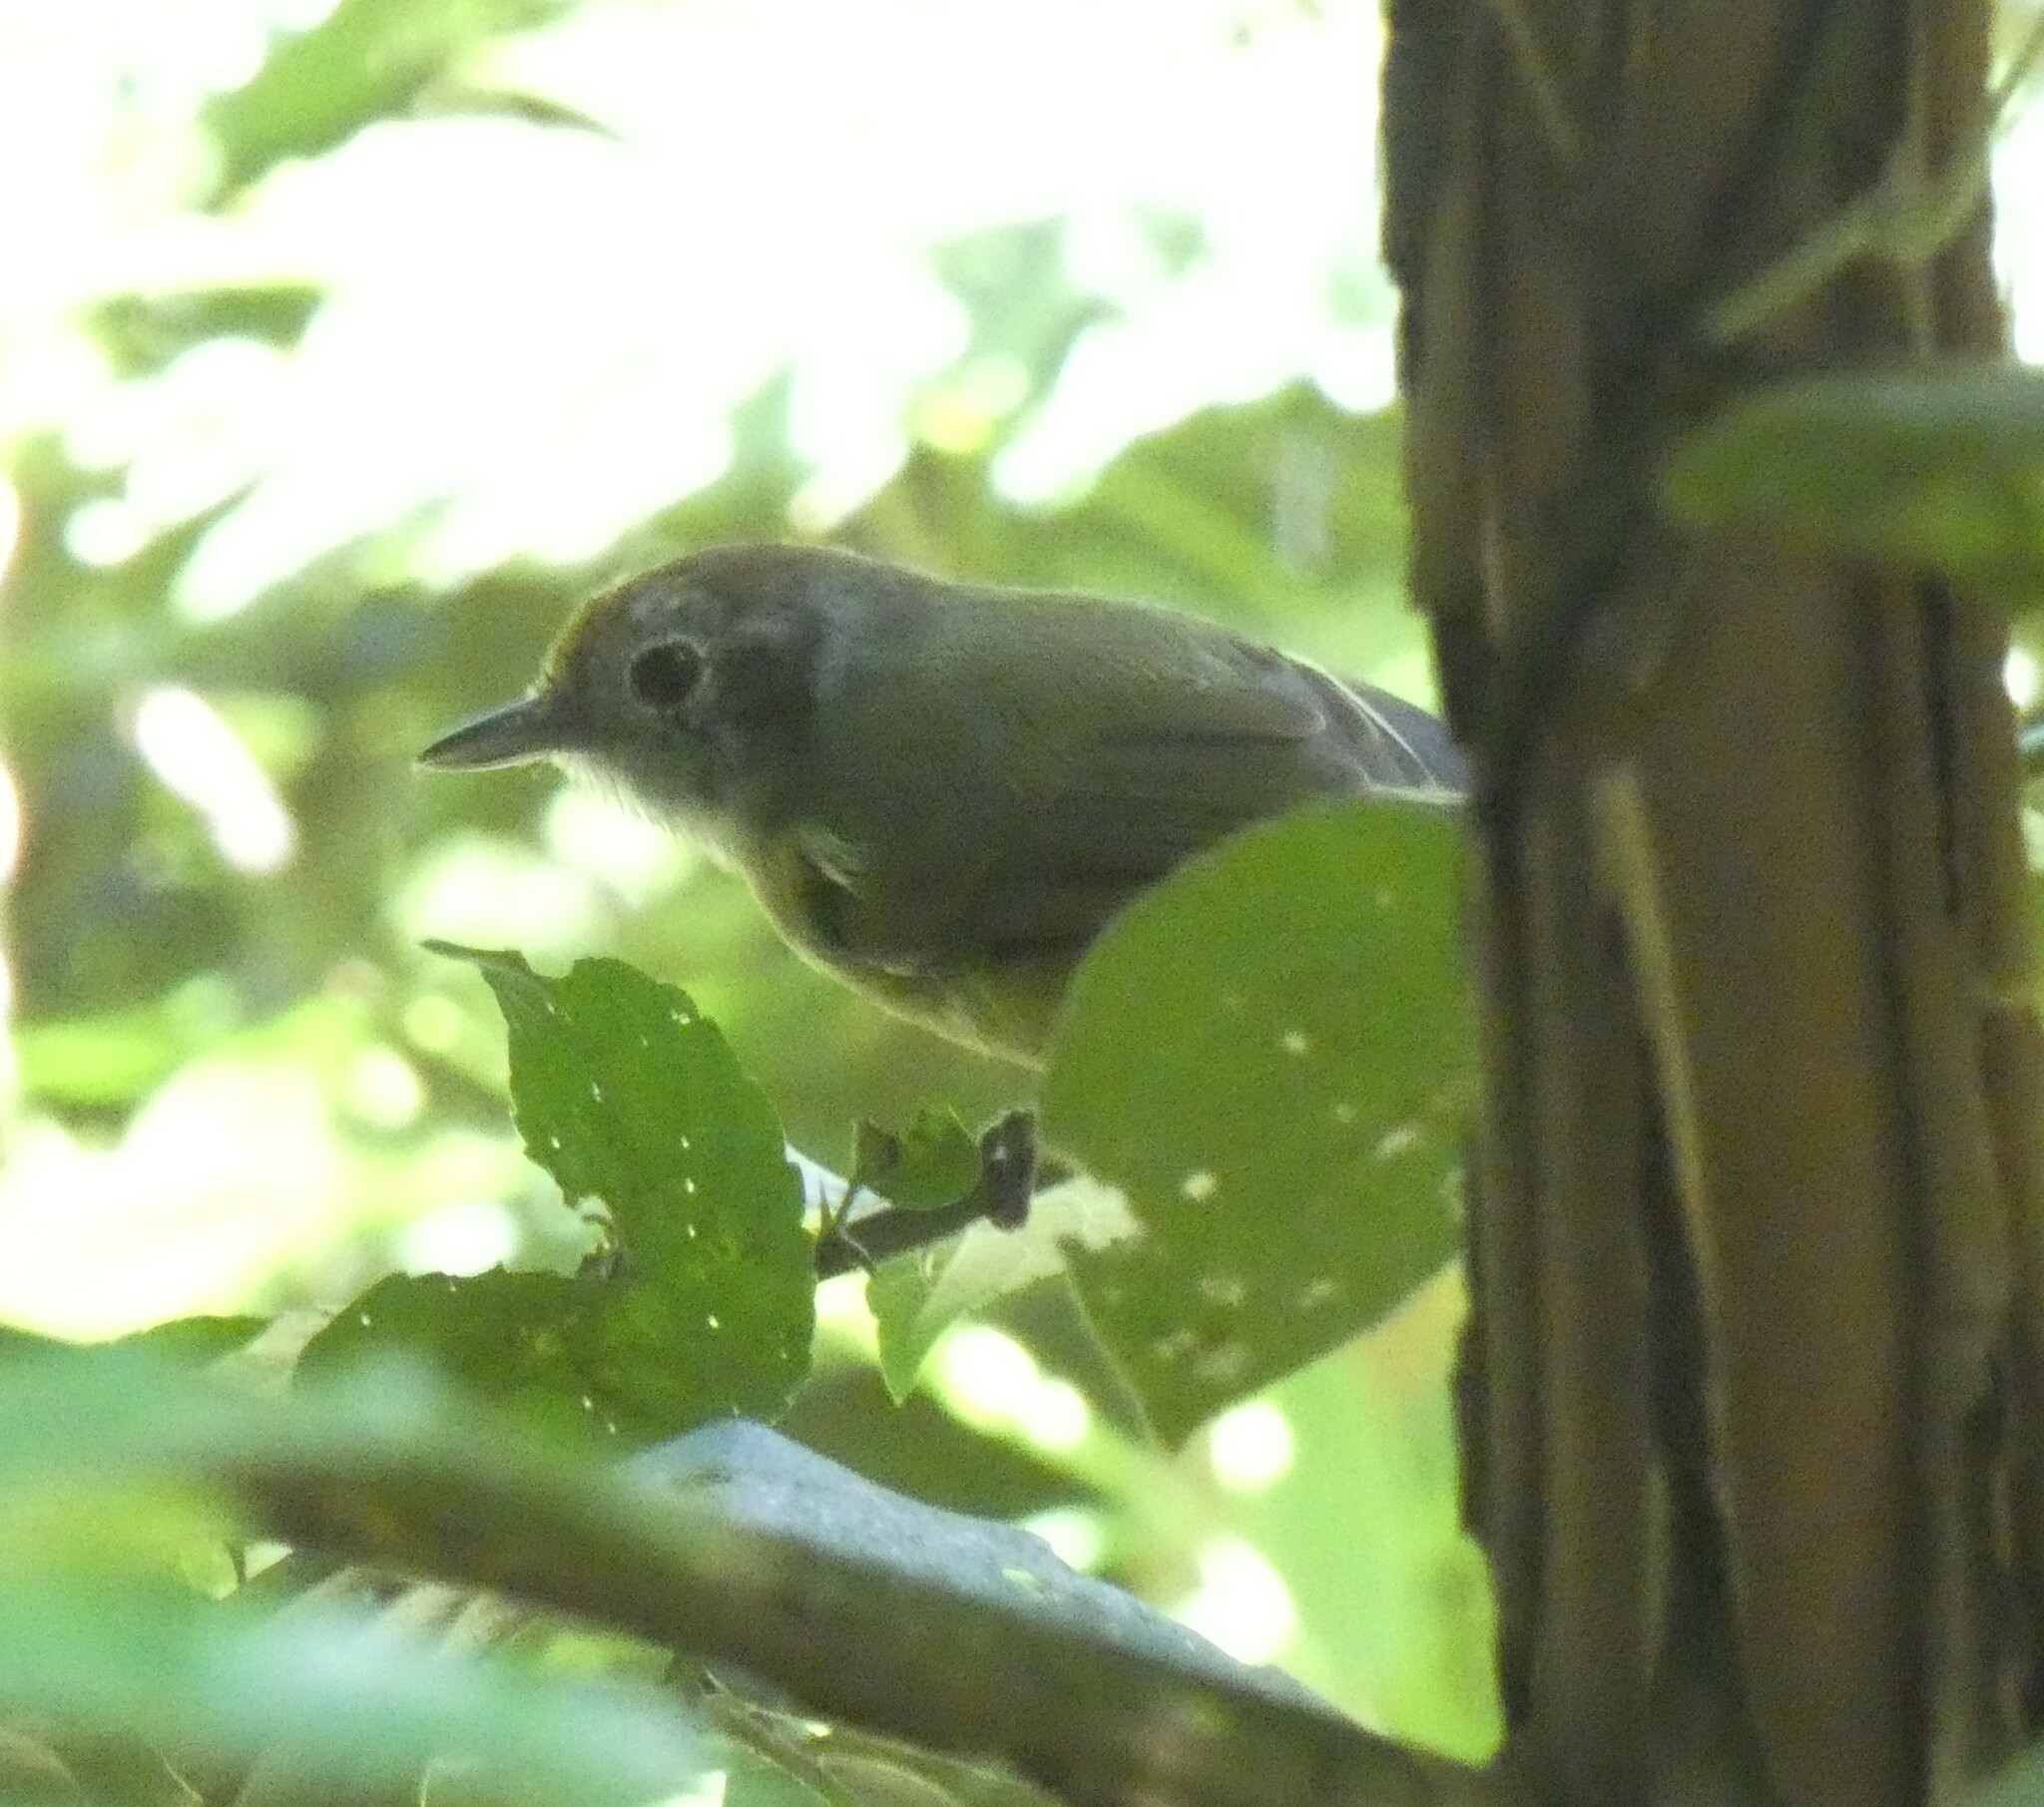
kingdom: Animalia
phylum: Chordata
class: Aves
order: Passeriformes
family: Thamnophilidae
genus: Dysithamnus
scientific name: Dysithamnus mentalis
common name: Plain antvireo
